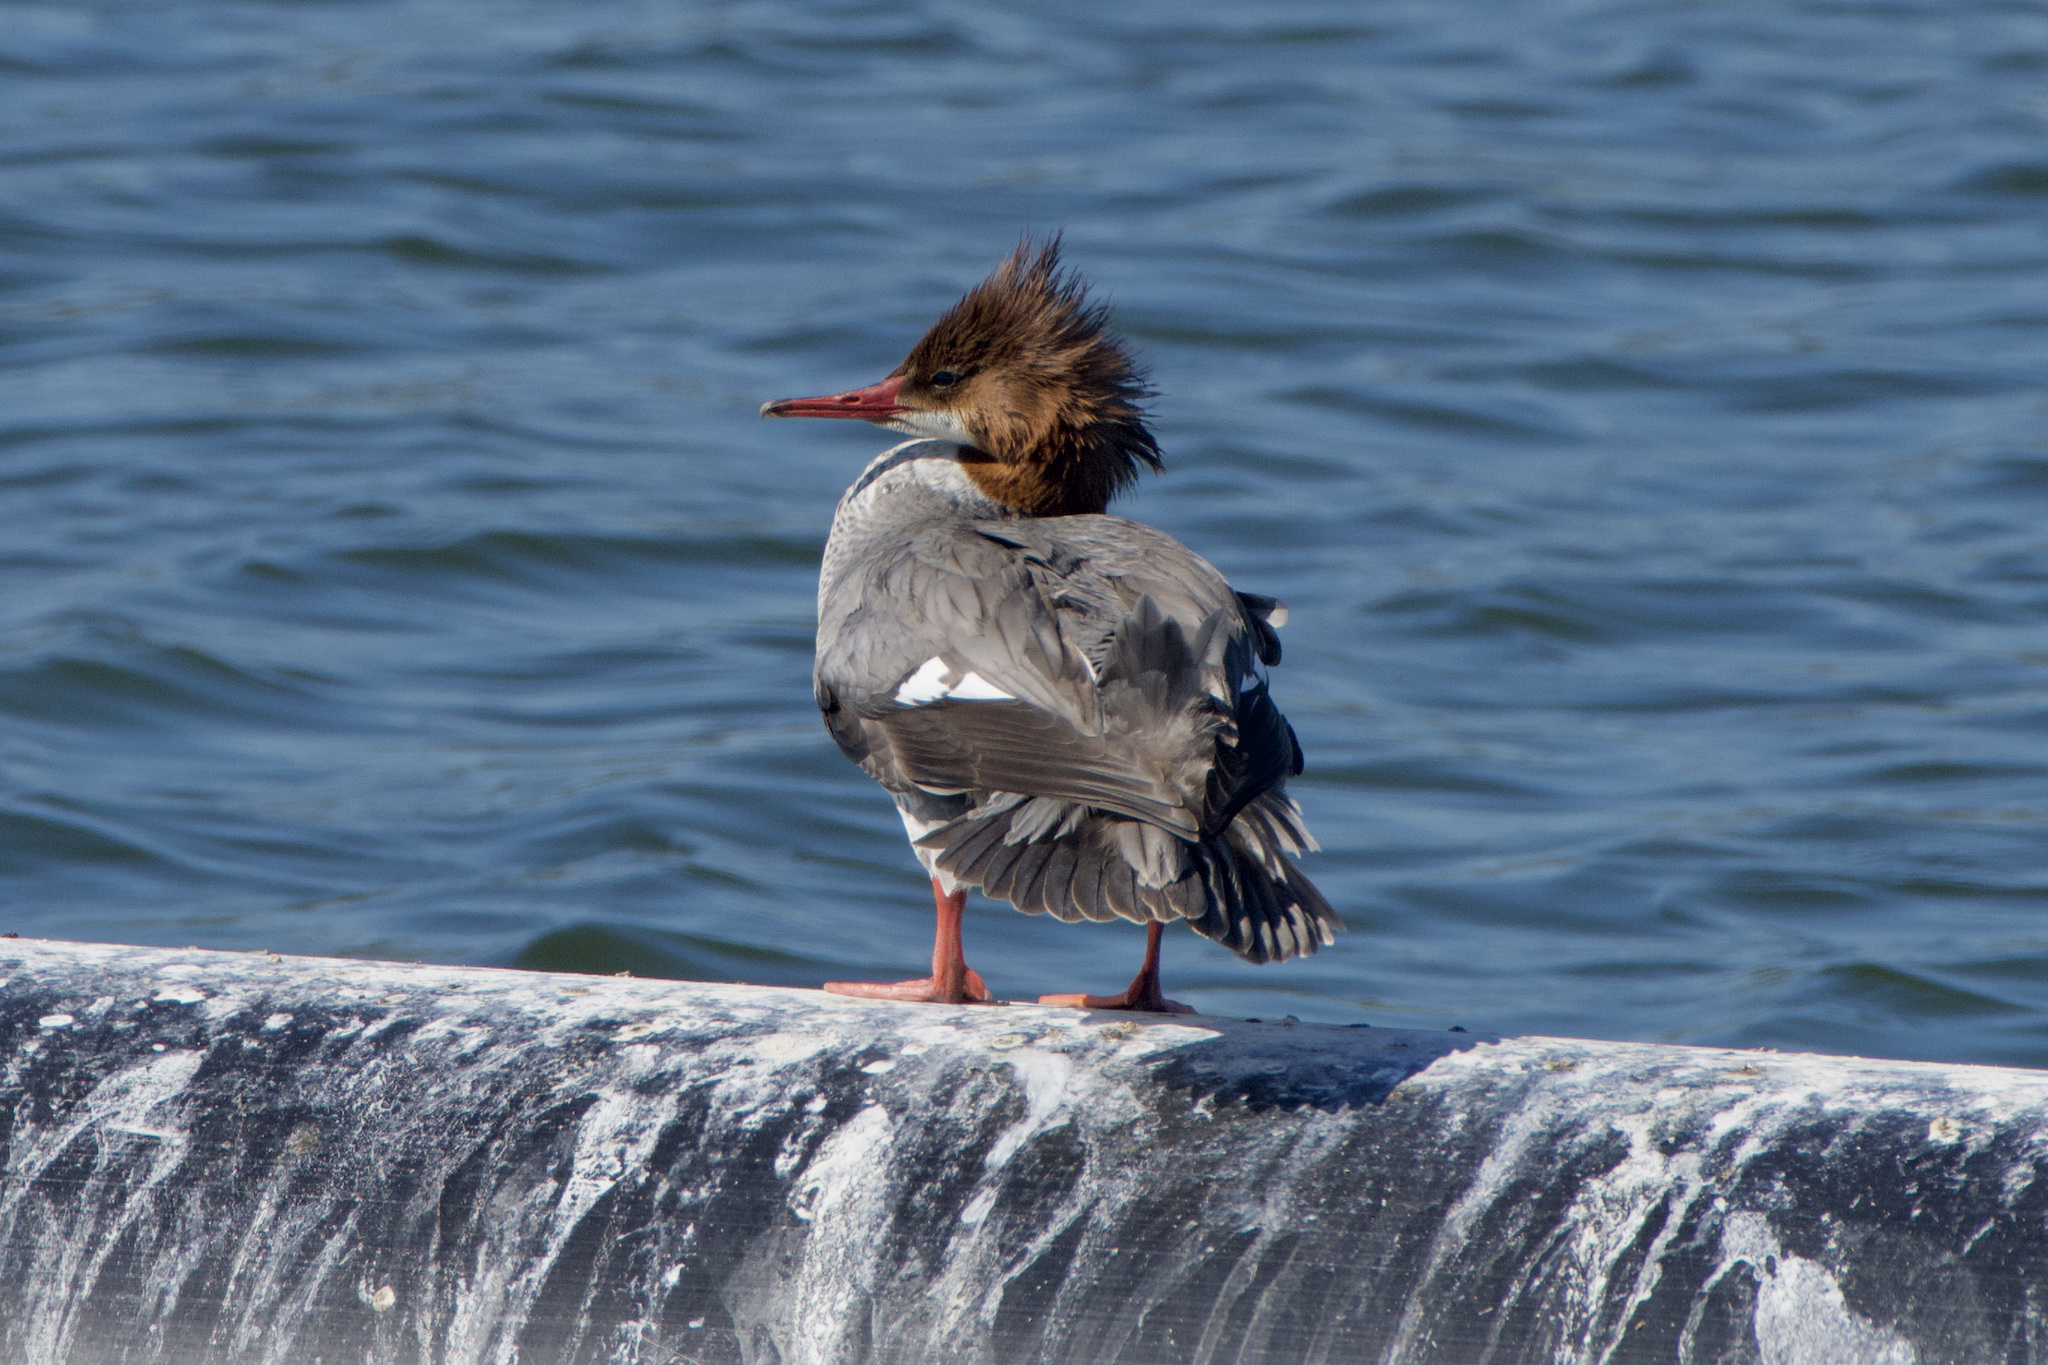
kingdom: Animalia
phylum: Chordata
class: Aves
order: Anseriformes
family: Anatidae
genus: Mergus
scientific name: Mergus merganser
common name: Common merganser
